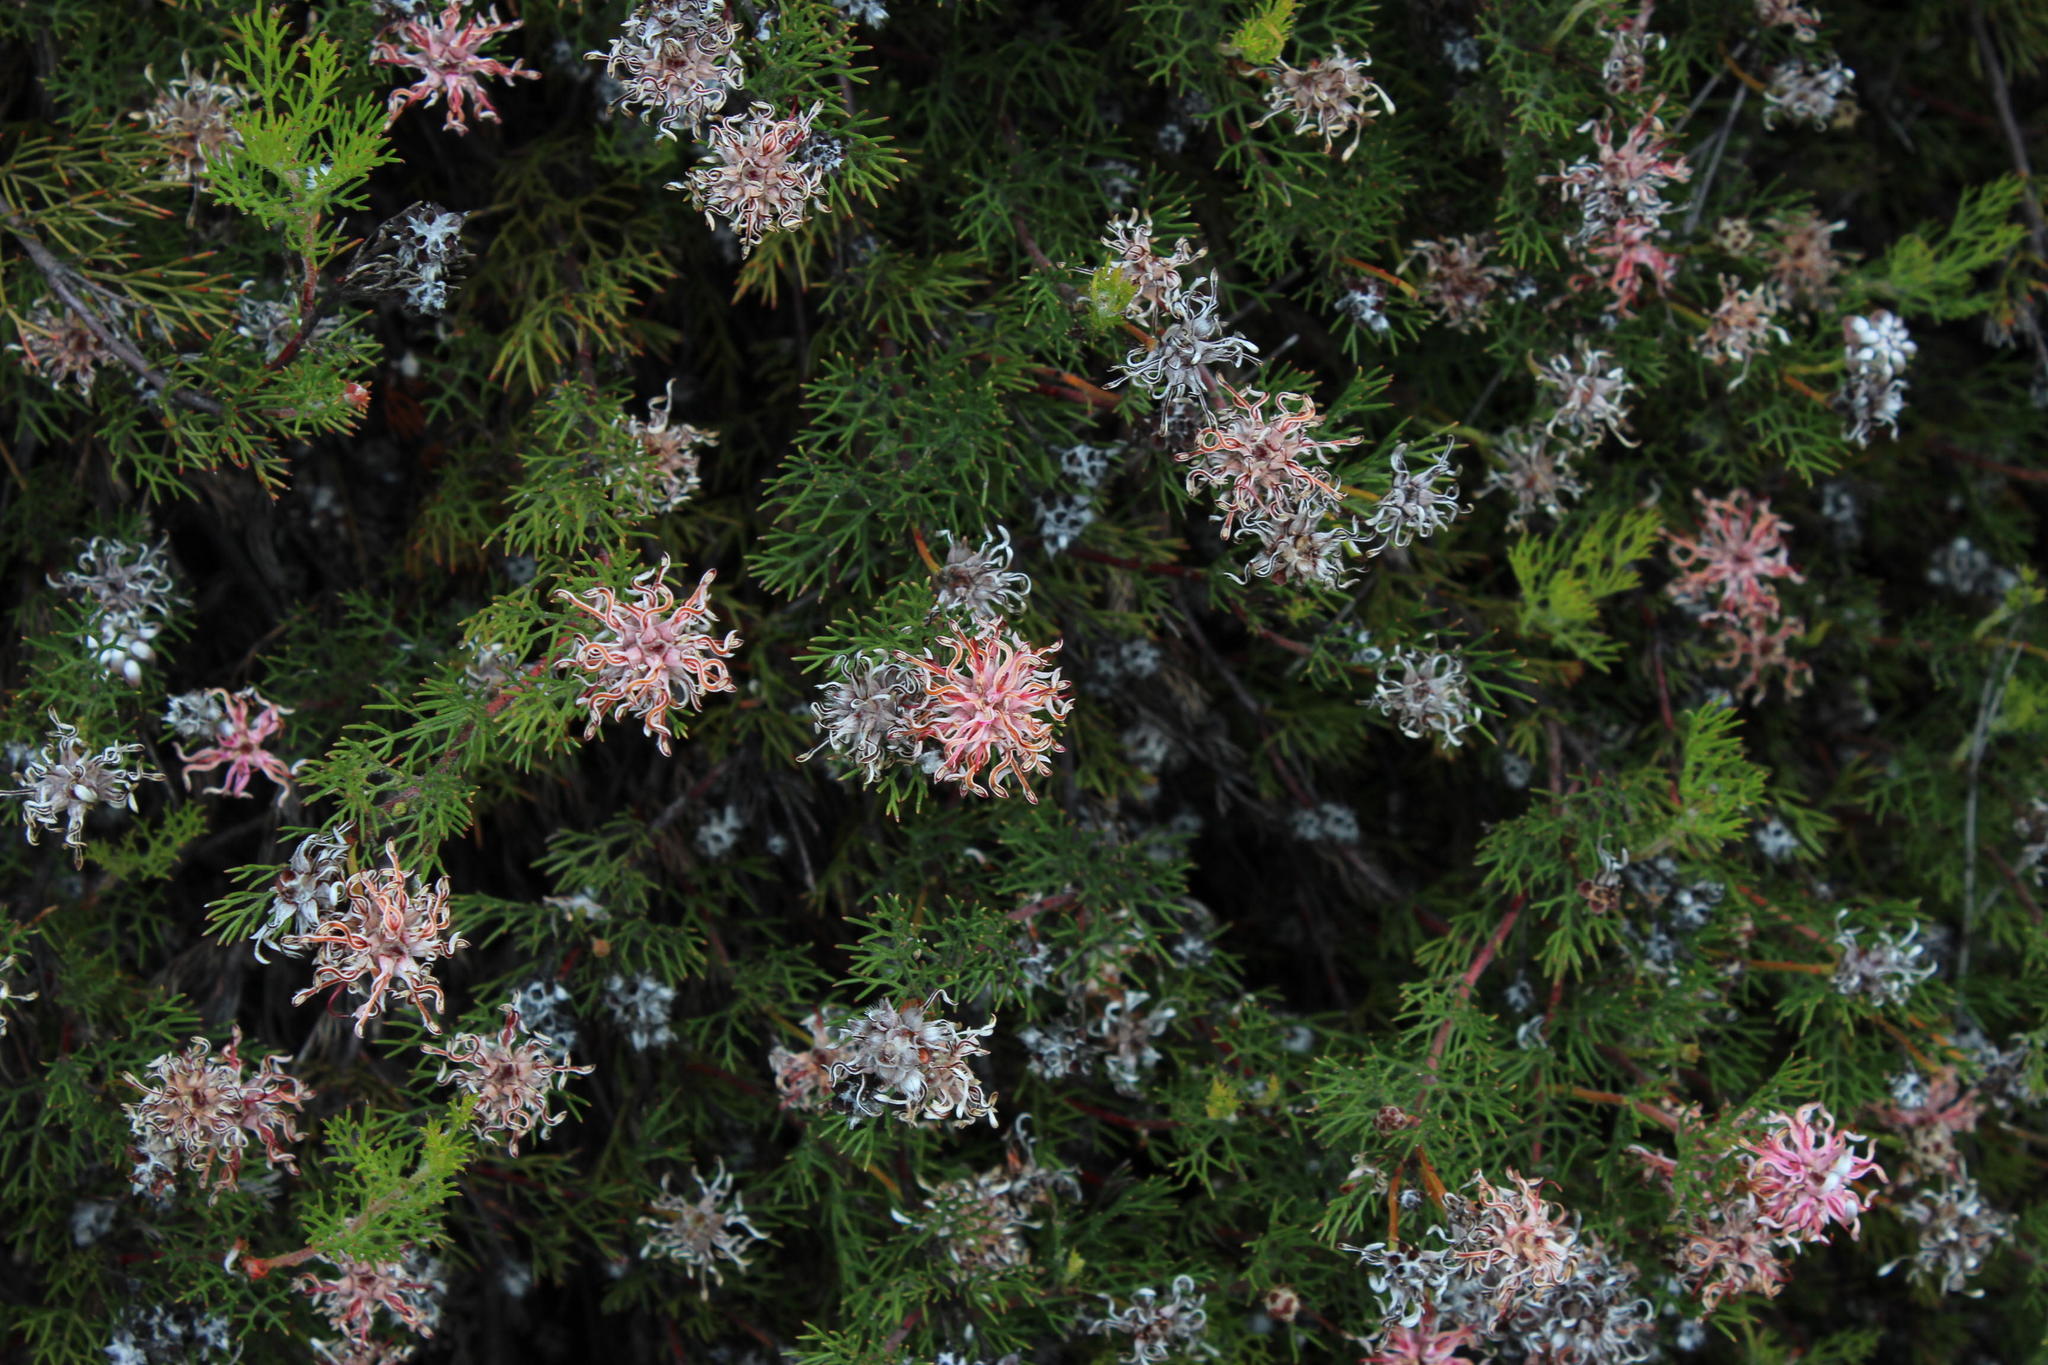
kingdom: Plantae
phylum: Tracheophyta
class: Magnoliopsida
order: Proteales
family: Proteaceae
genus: Serruria
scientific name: Serruria gremialis
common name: Riviersonderend spiderhead
